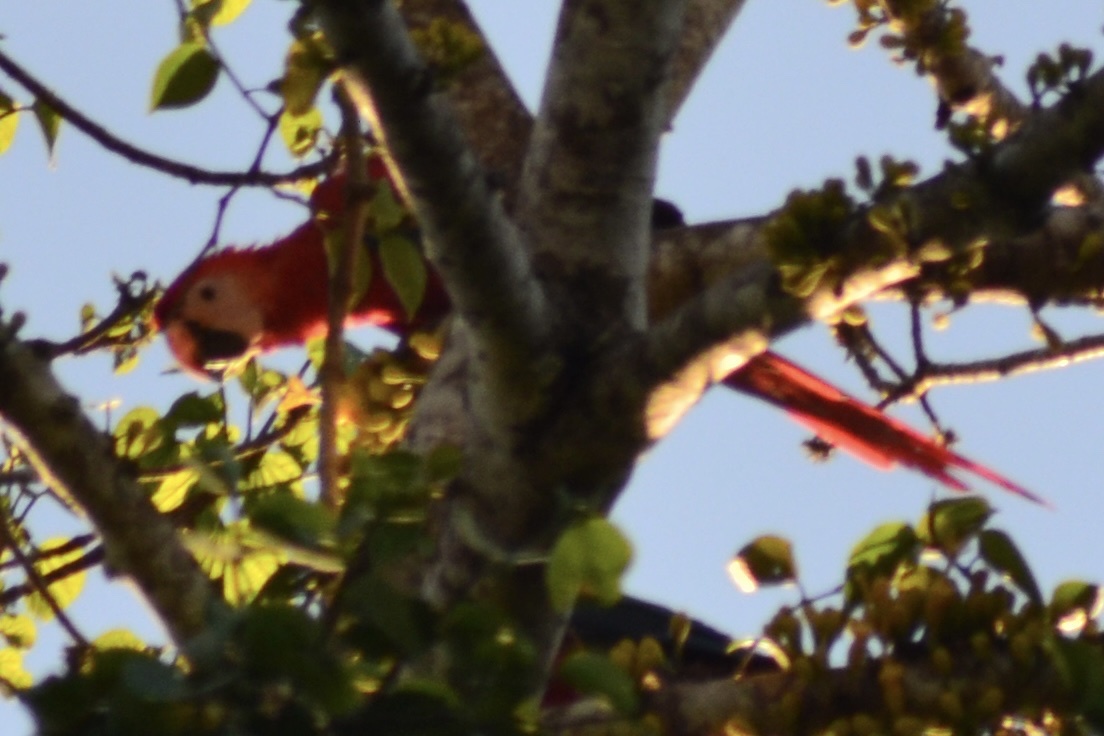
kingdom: Animalia
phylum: Chordata
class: Aves
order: Psittaciformes
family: Psittacidae
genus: Ara
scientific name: Ara macao
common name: Scarlet macaw
